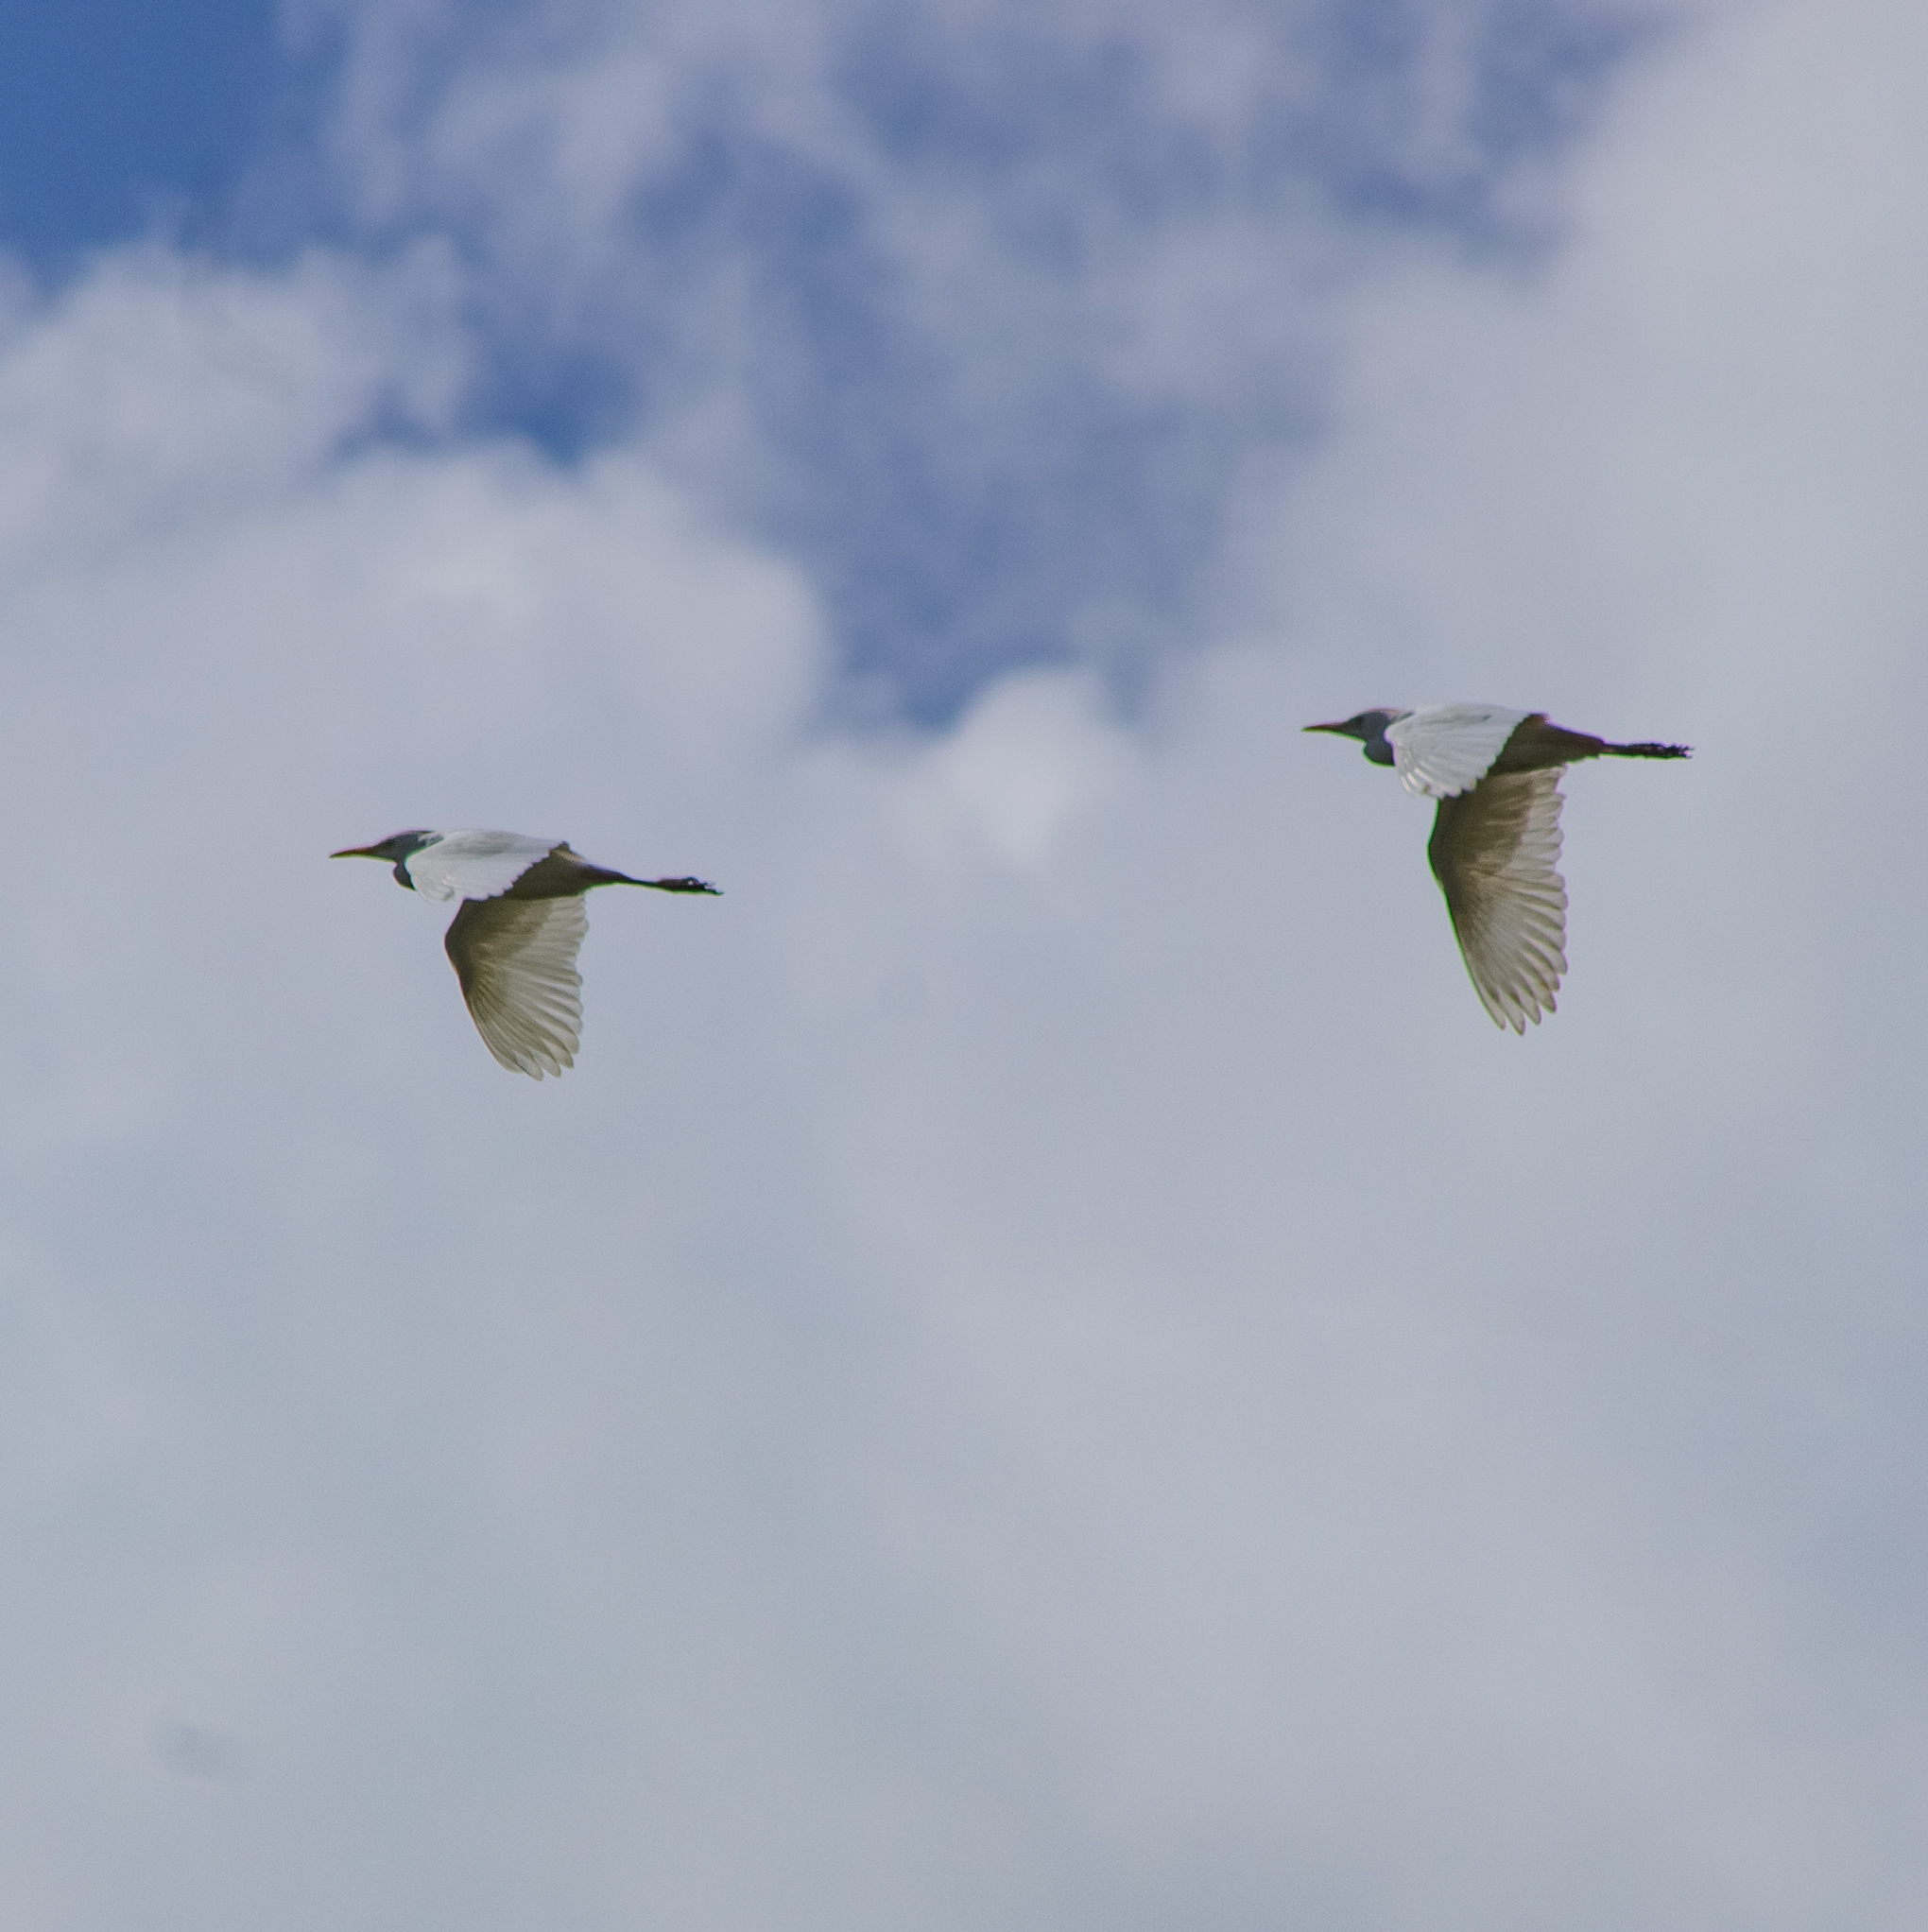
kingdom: Animalia
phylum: Chordata
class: Aves
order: Pelecaniformes
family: Ardeidae
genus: Bubulcus
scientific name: Bubulcus ibis
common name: Cattle egret
